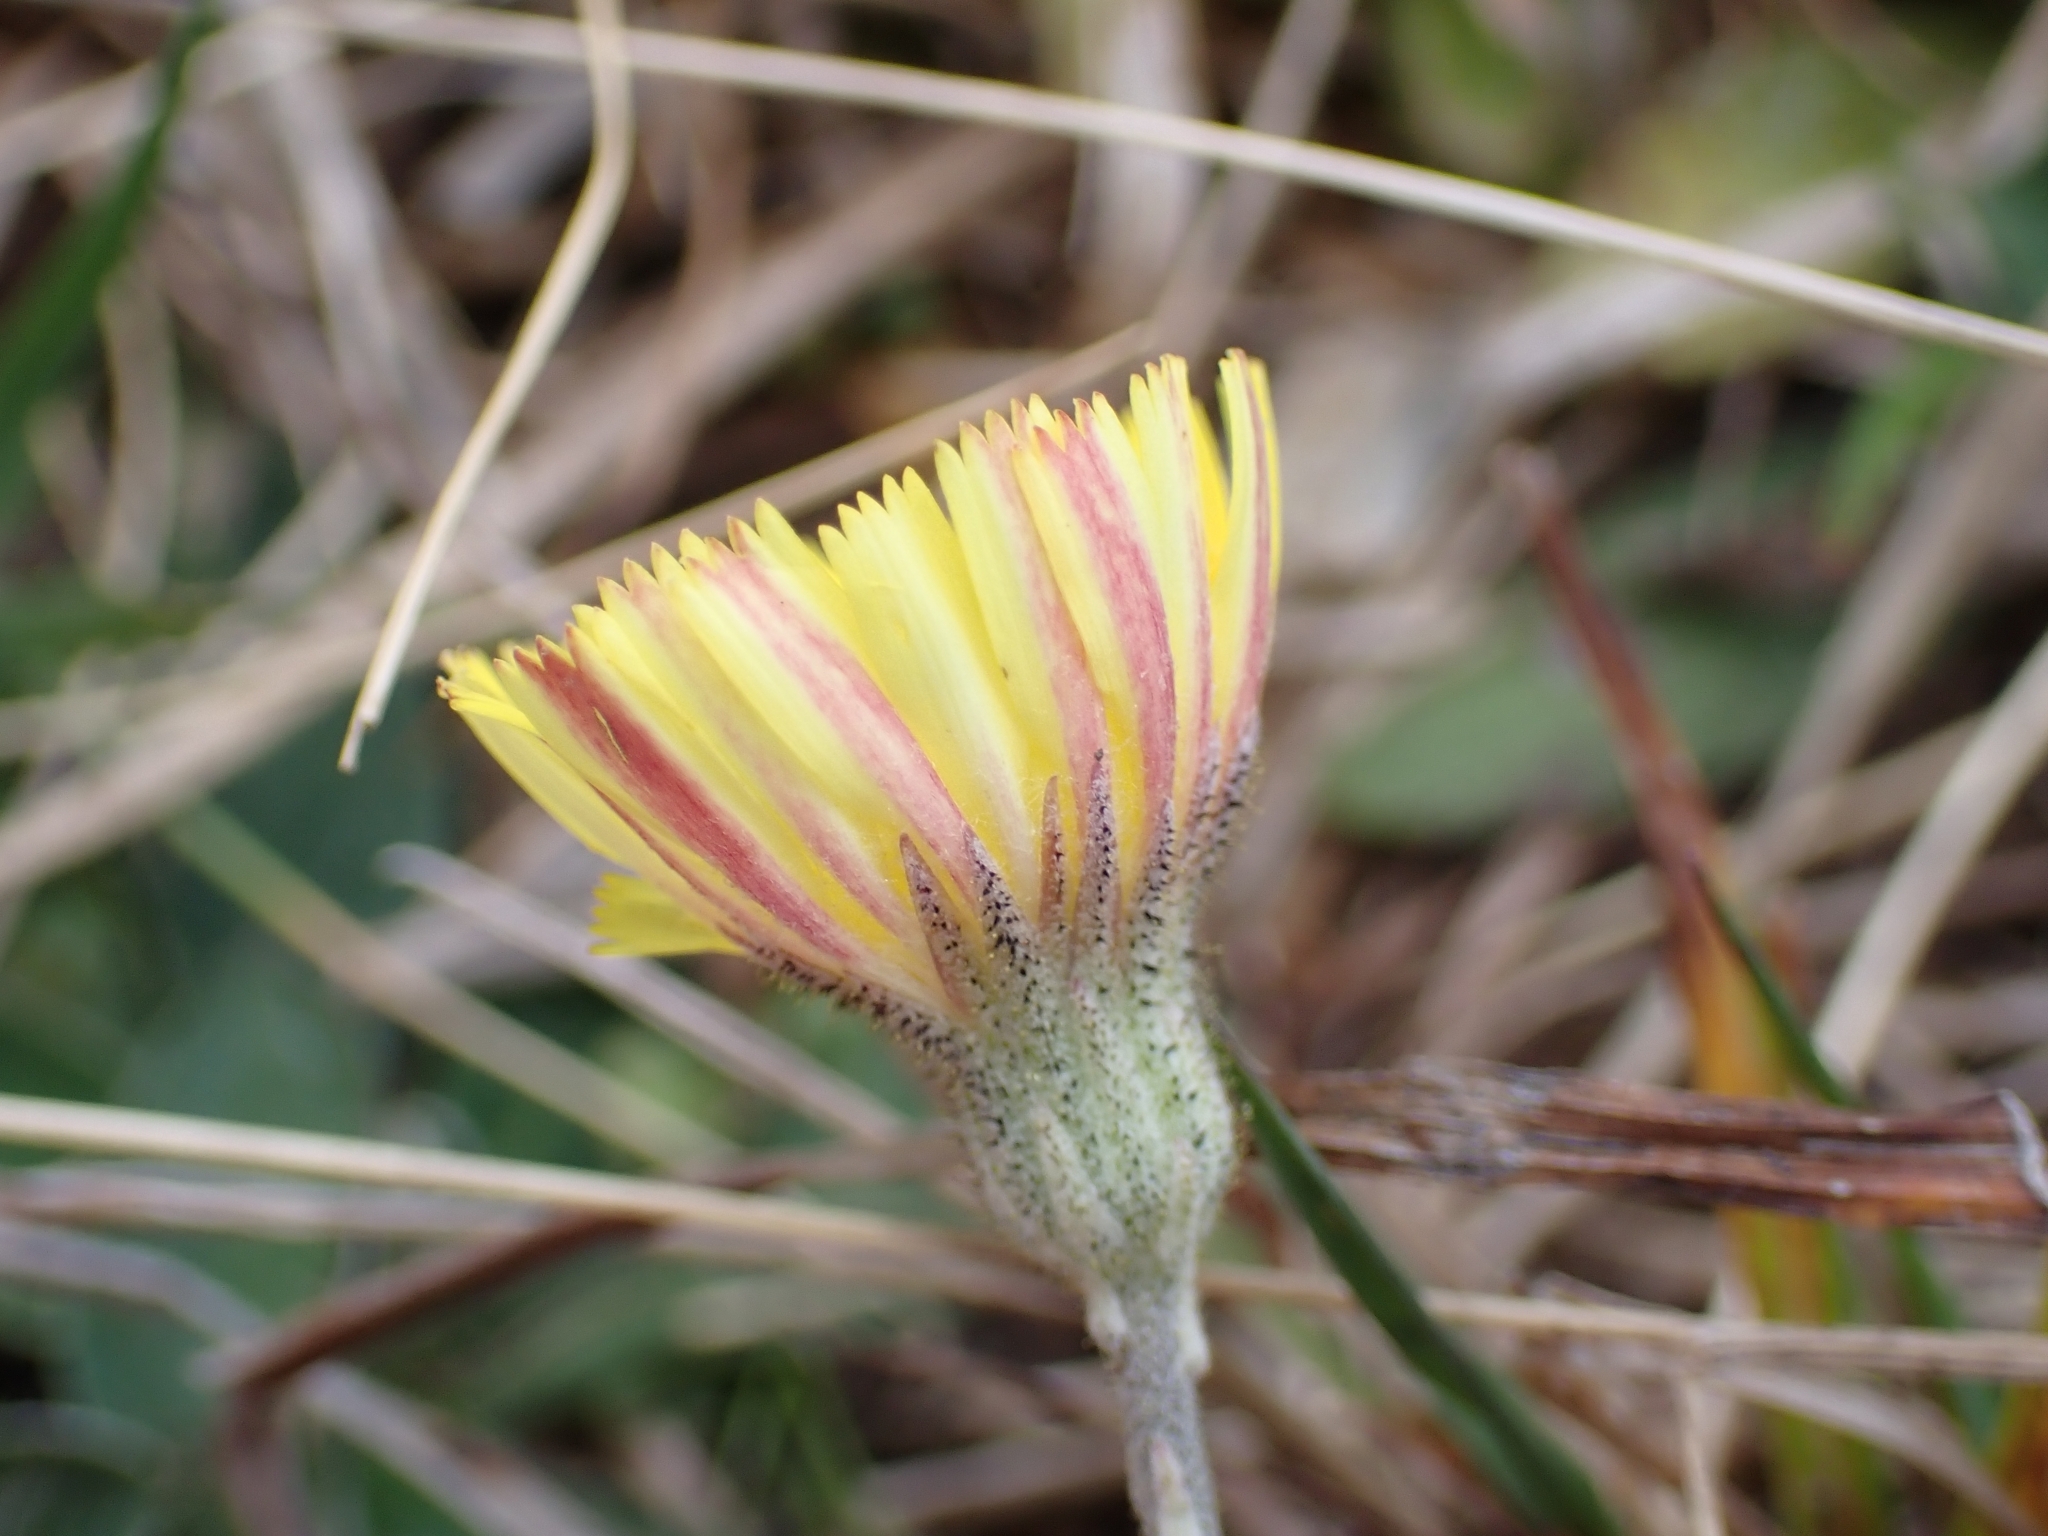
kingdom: Plantae
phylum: Tracheophyta
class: Magnoliopsida
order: Asterales
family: Asteraceae
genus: Pilosella
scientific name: Pilosella officinarum
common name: Mouse-ear hawkweed
